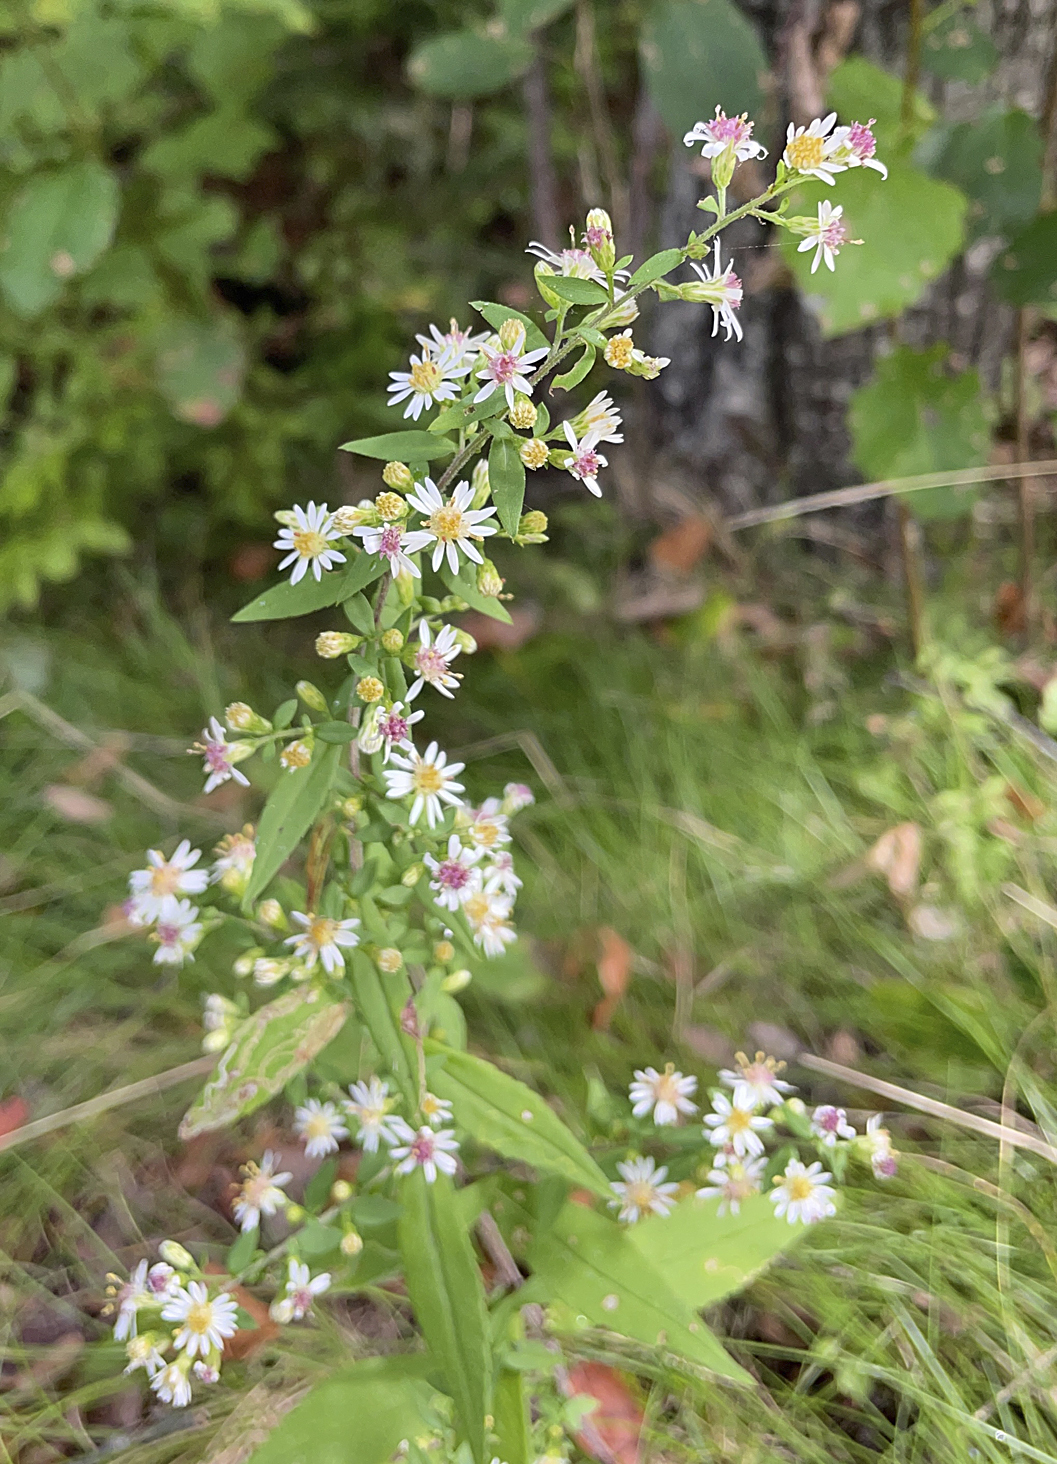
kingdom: Plantae
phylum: Tracheophyta
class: Magnoliopsida
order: Asterales
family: Asteraceae
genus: Symphyotrichum
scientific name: Symphyotrichum lateriflorum
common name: Calico aster
